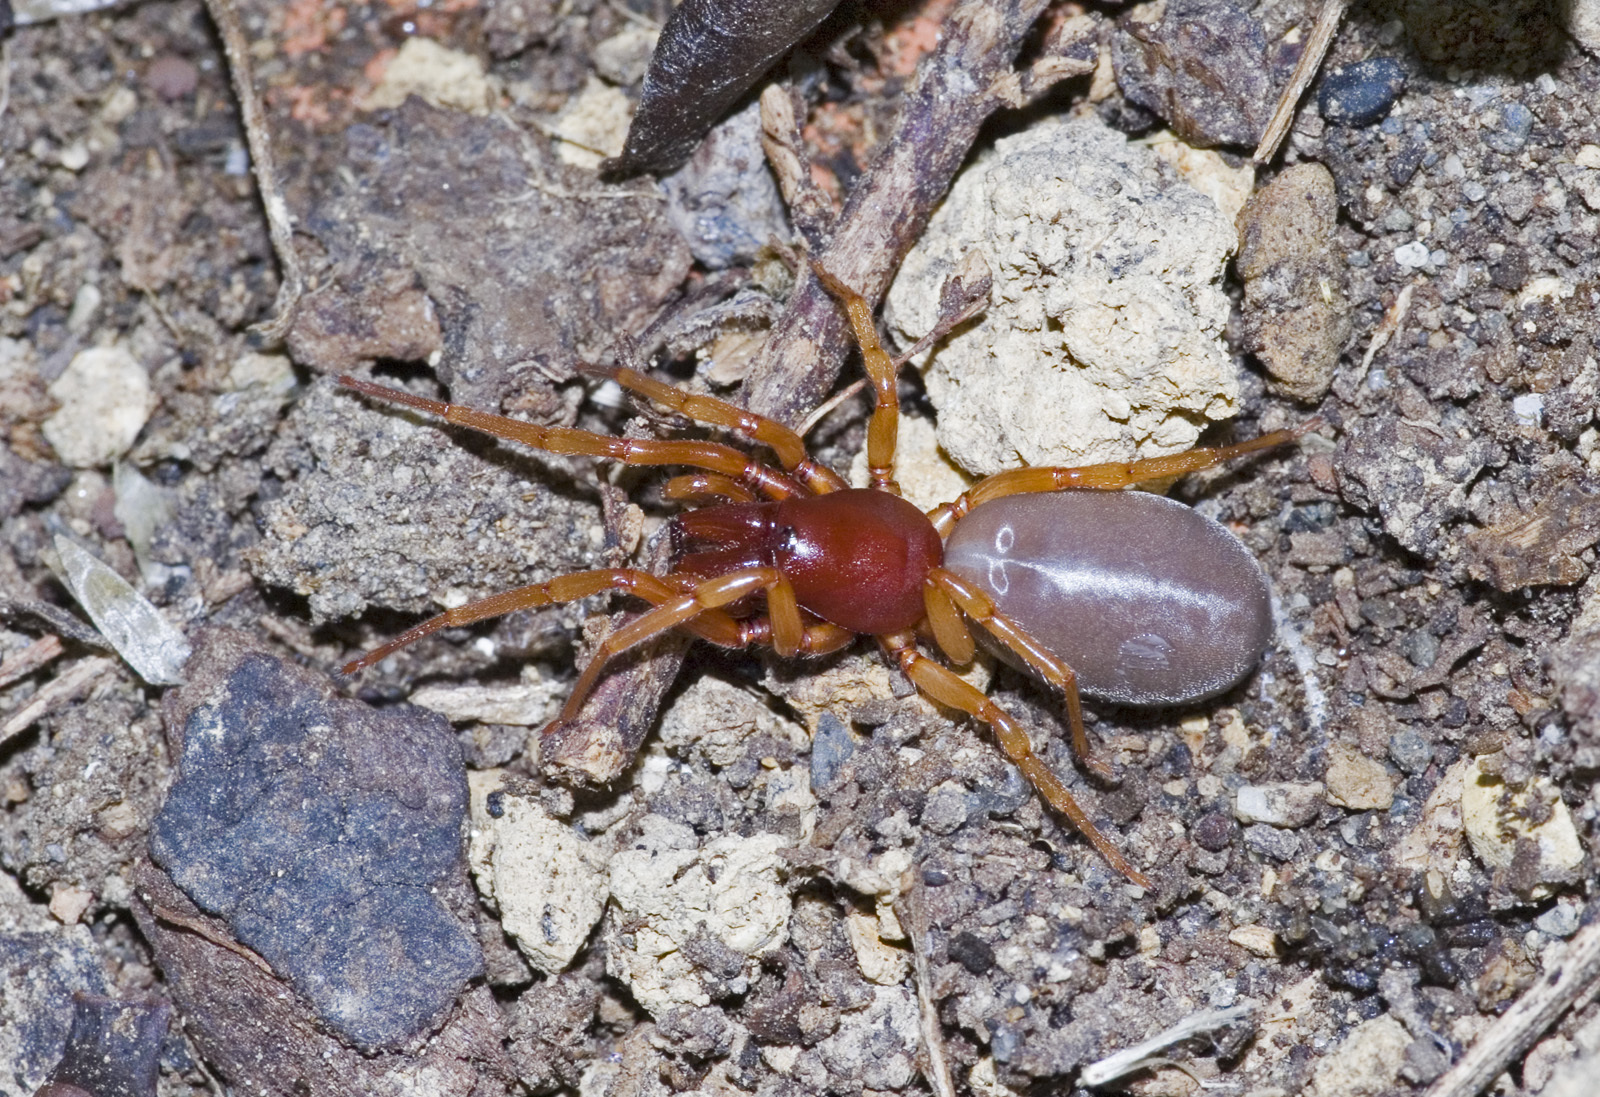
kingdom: Animalia
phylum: Arthropoda
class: Arachnida
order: Araneae
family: Dysderidae
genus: Dysdera
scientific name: Dysdera crocata
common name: Woodlouse spider
